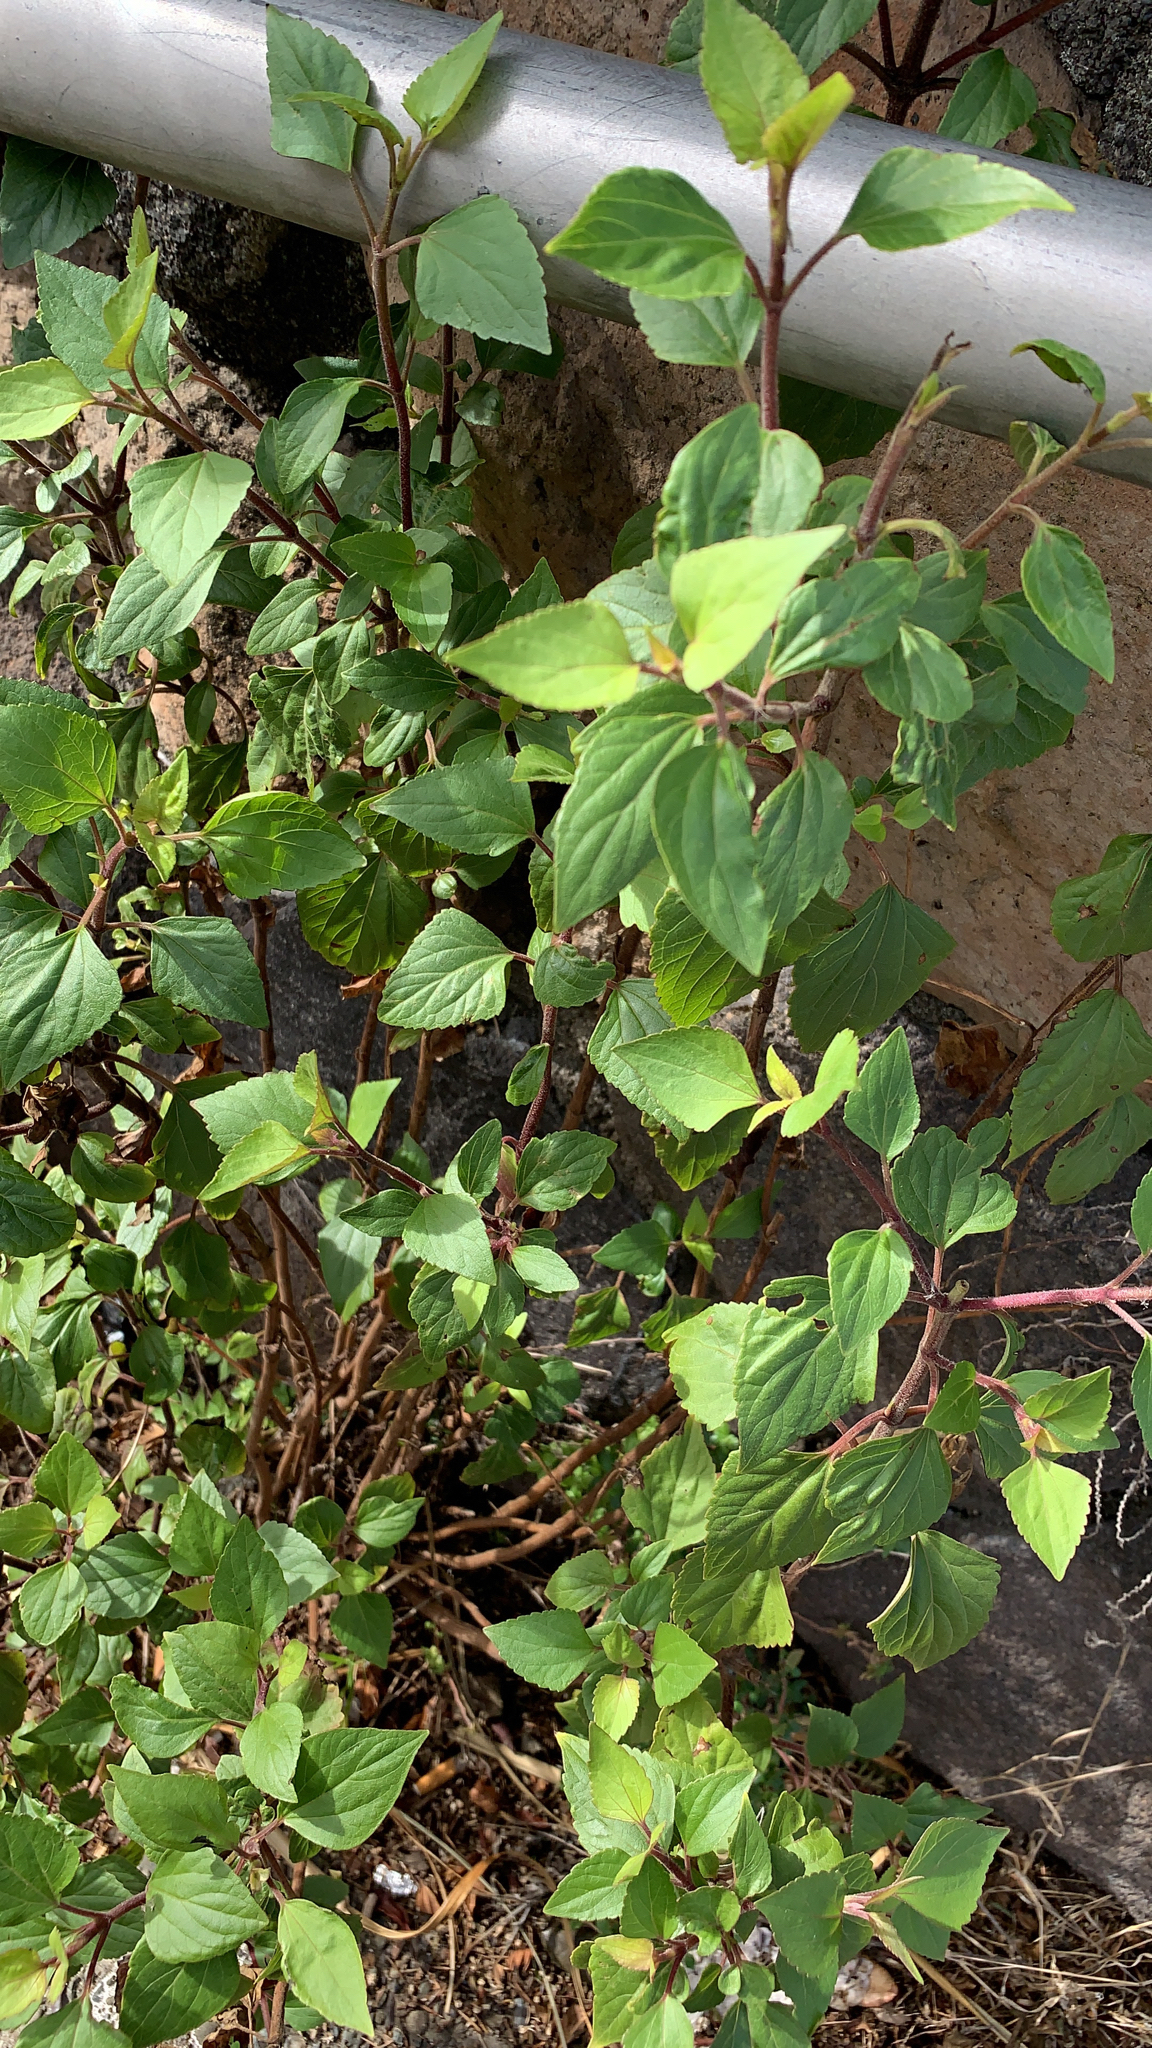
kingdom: Plantae
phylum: Tracheophyta
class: Magnoliopsida
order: Asterales
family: Asteraceae
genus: Ageratina
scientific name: Ageratina adenophora
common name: Sticky snakeroot
